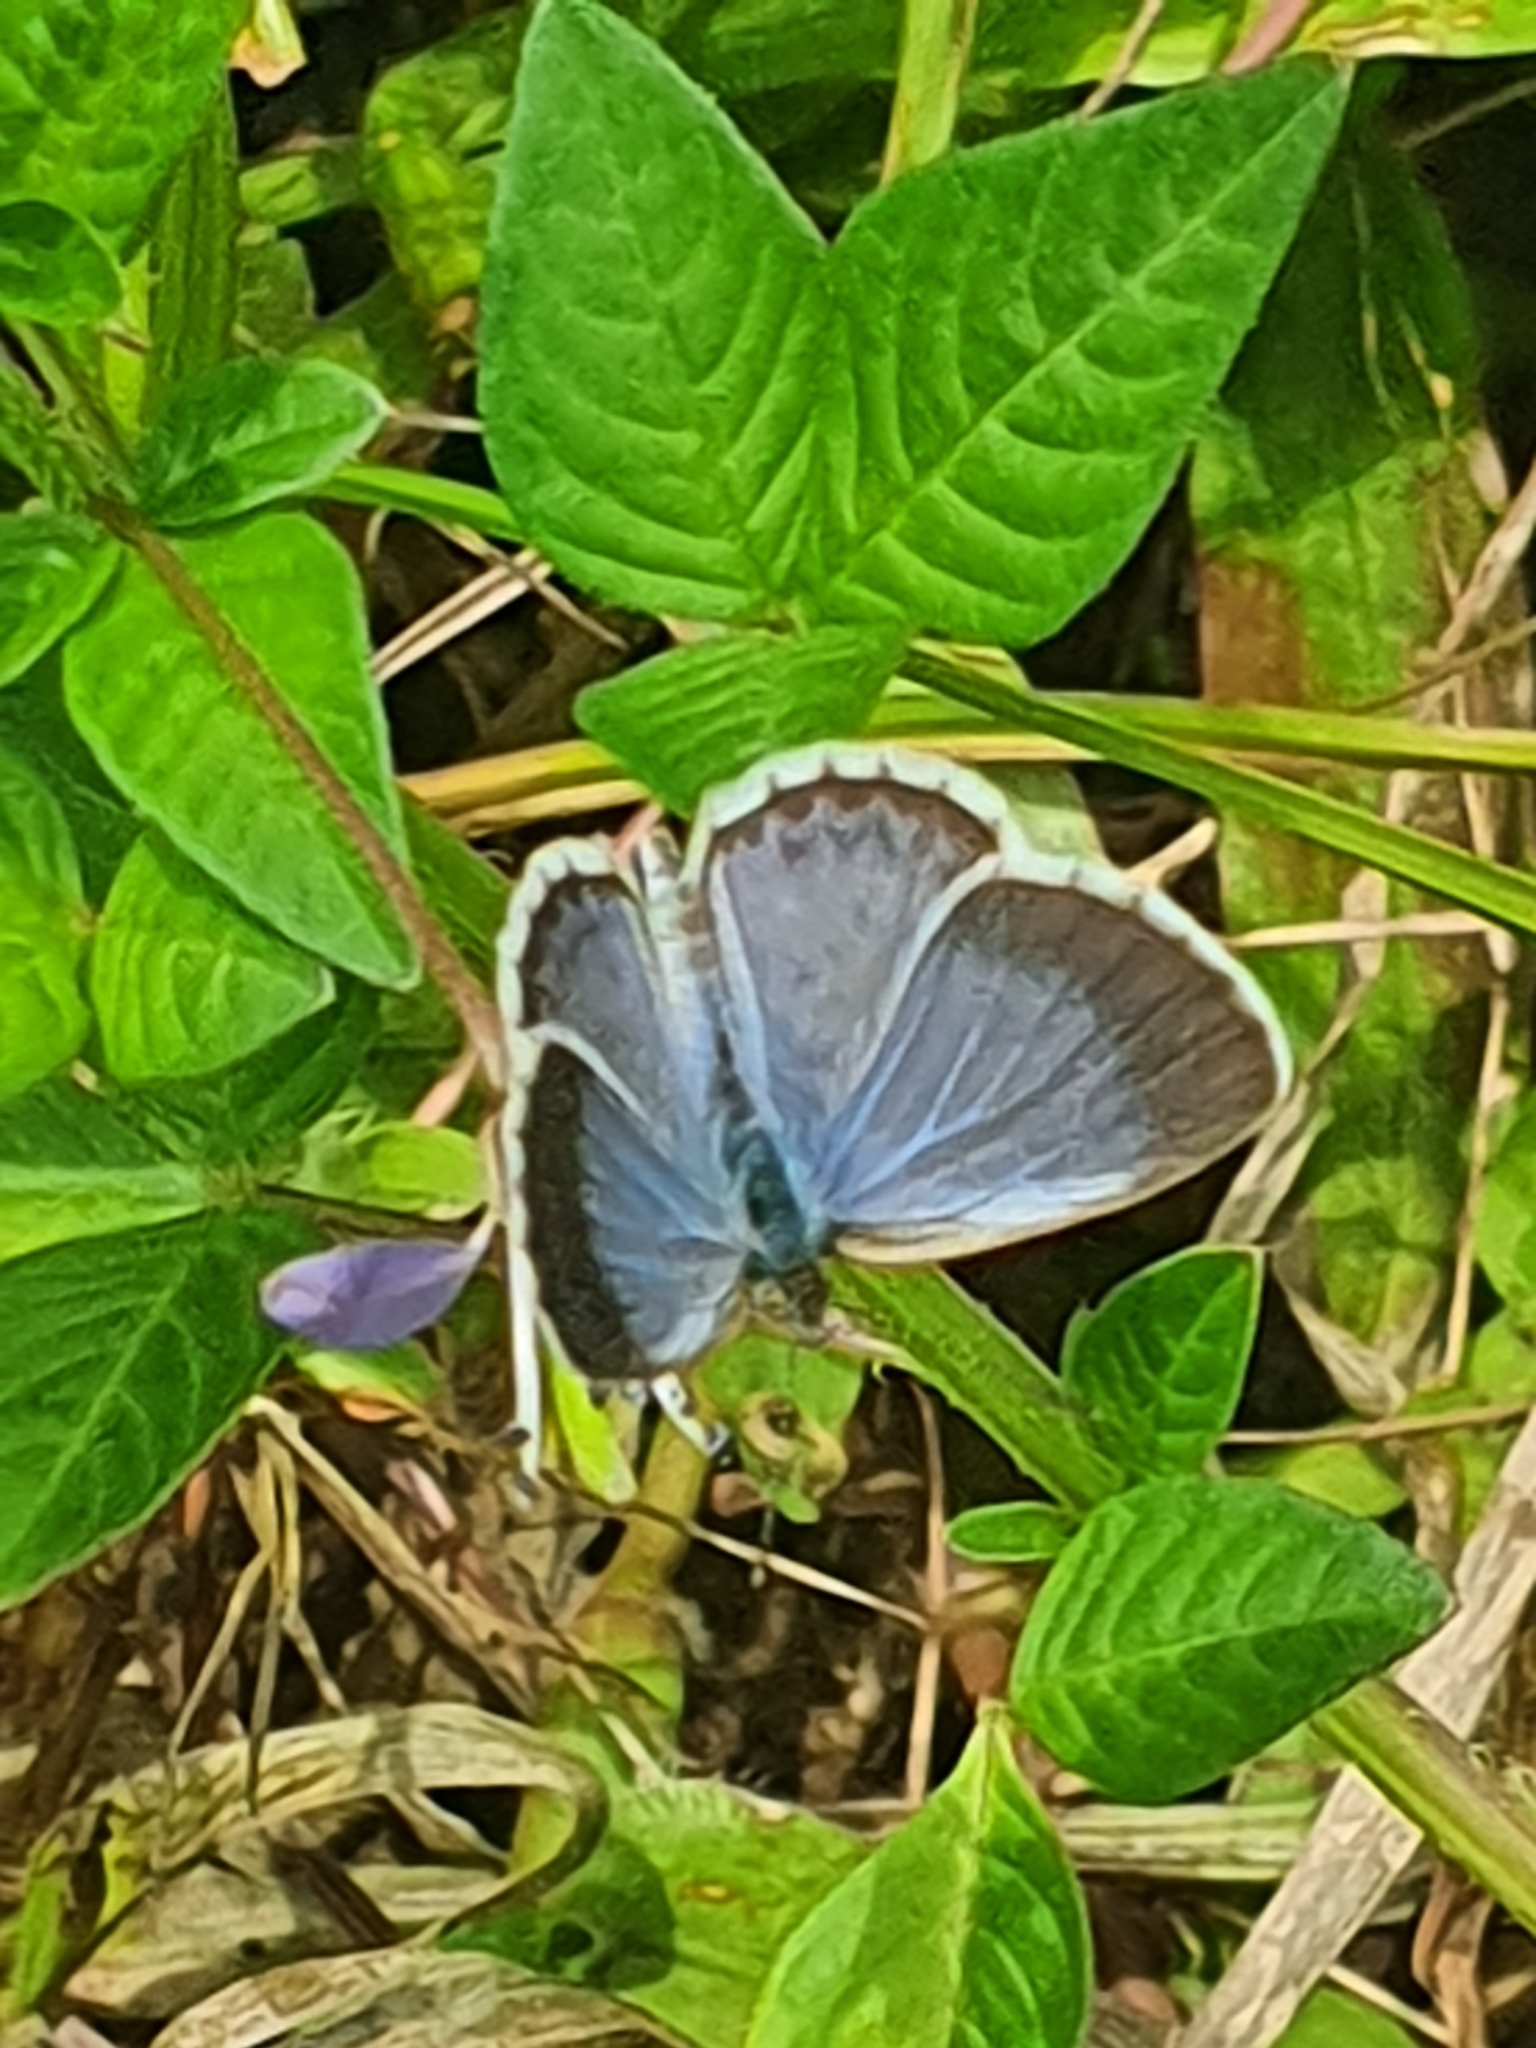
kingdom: Animalia
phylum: Arthropoda
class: Insecta
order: Lepidoptera
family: Lycaenidae
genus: Zizina
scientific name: Zizina otis
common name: Lesser grass blue
